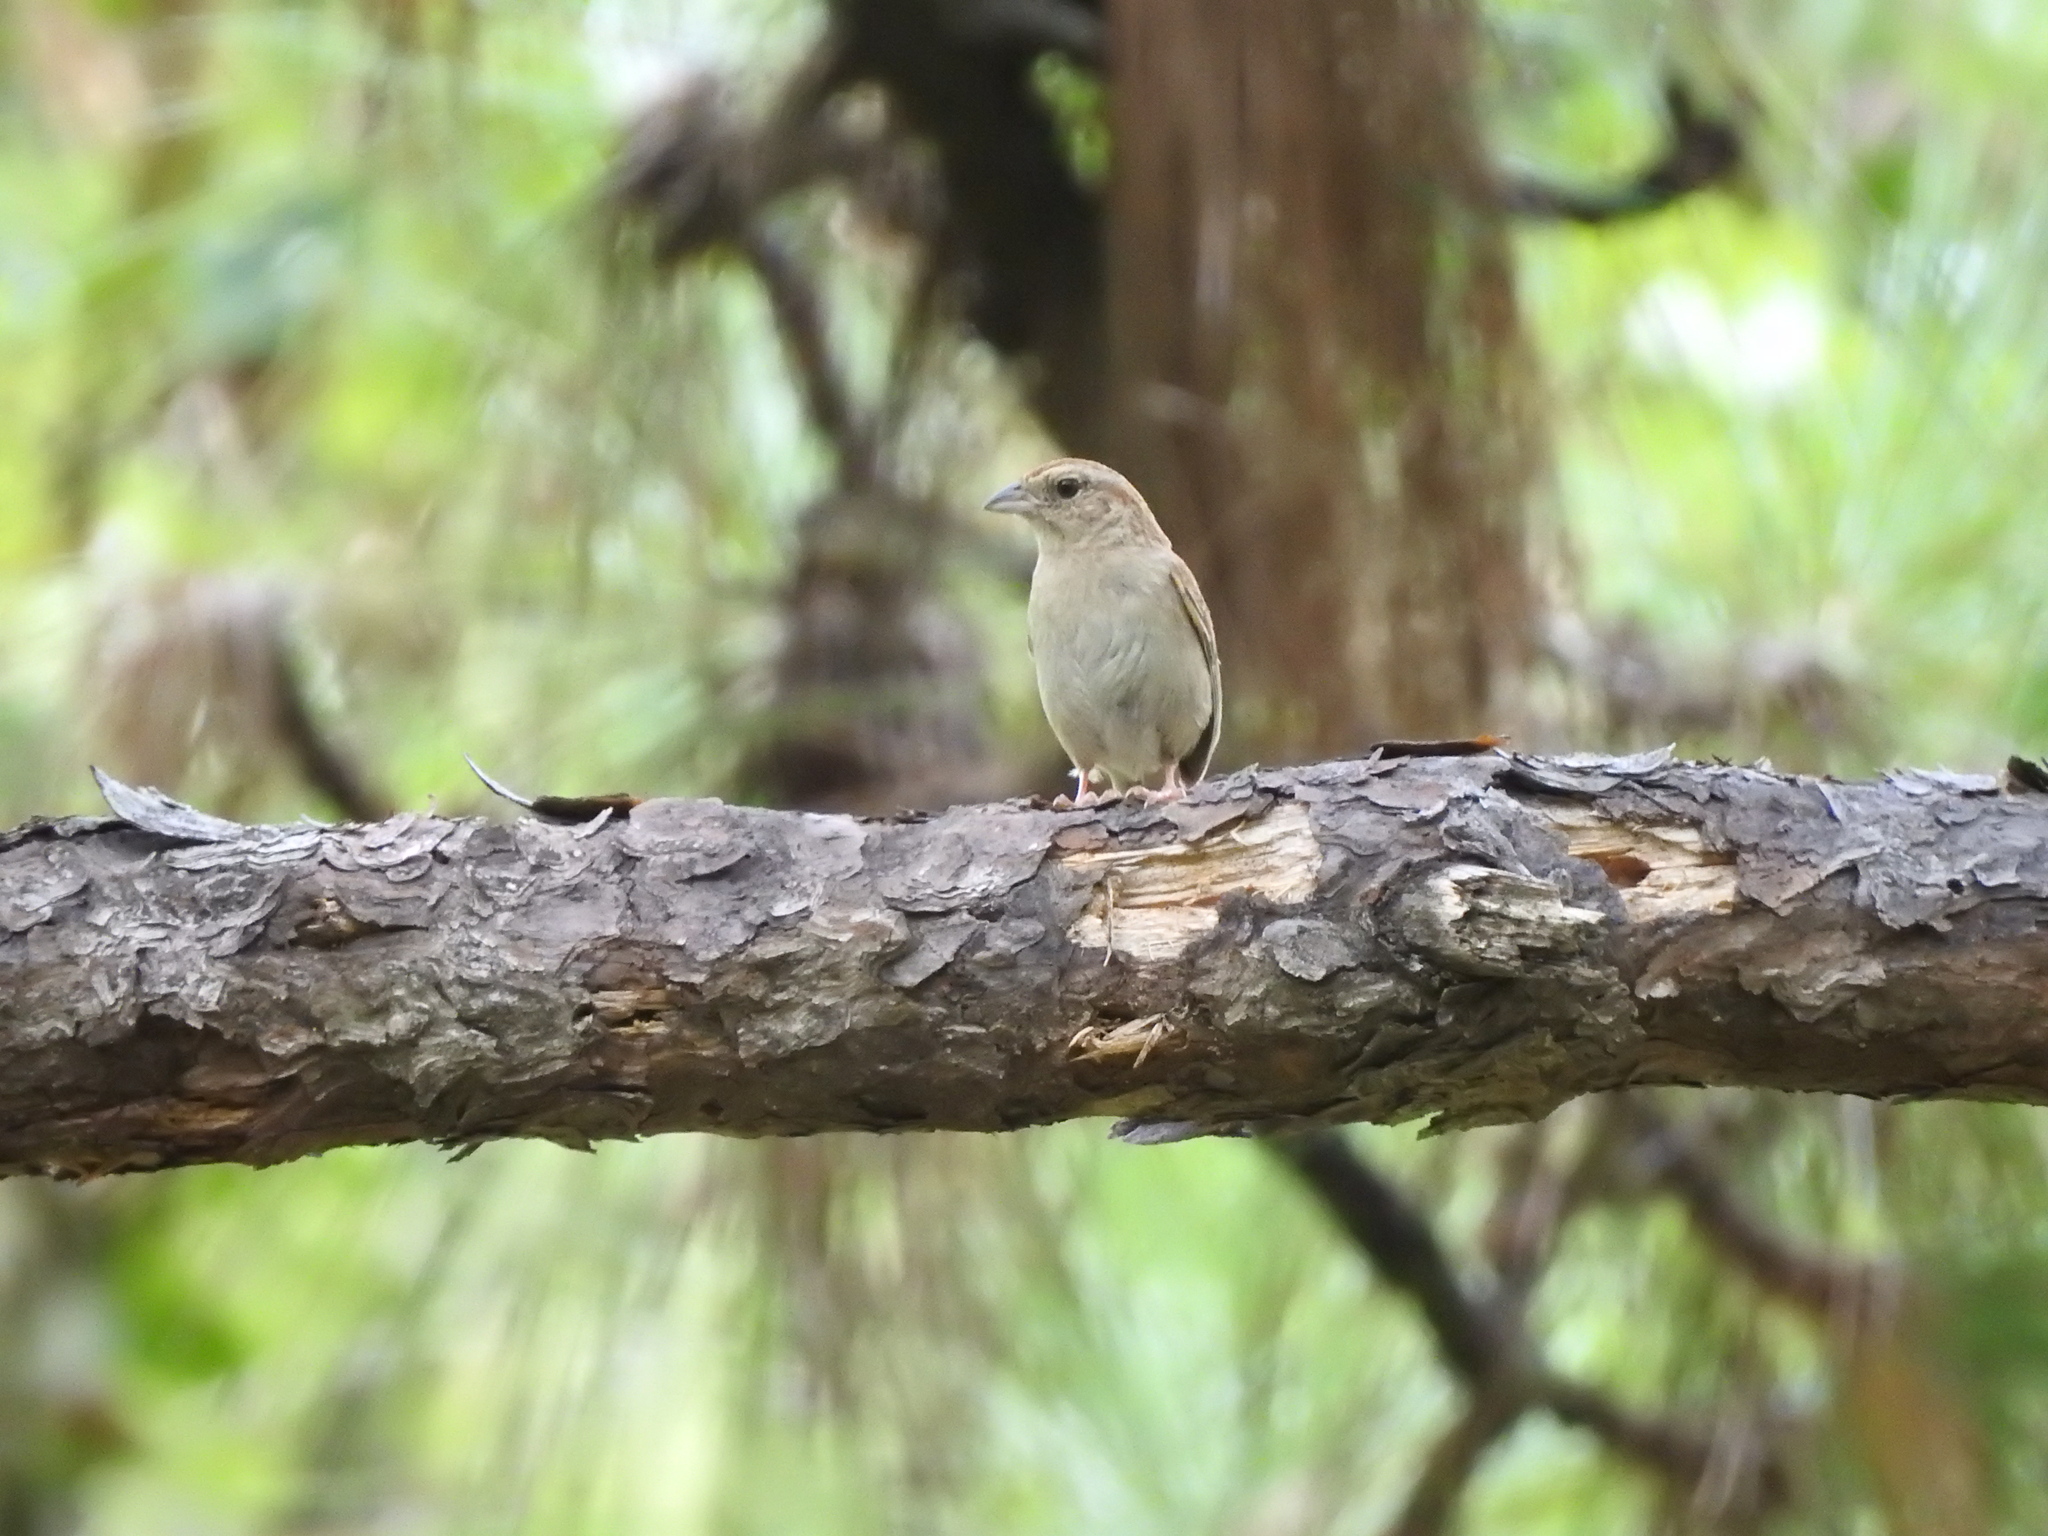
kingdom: Animalia
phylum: Chordata
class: Aves
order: Passeriformes
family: Passerellidae
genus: Peucaea
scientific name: Peucaea aestivalis
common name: Bachman's sparrow
